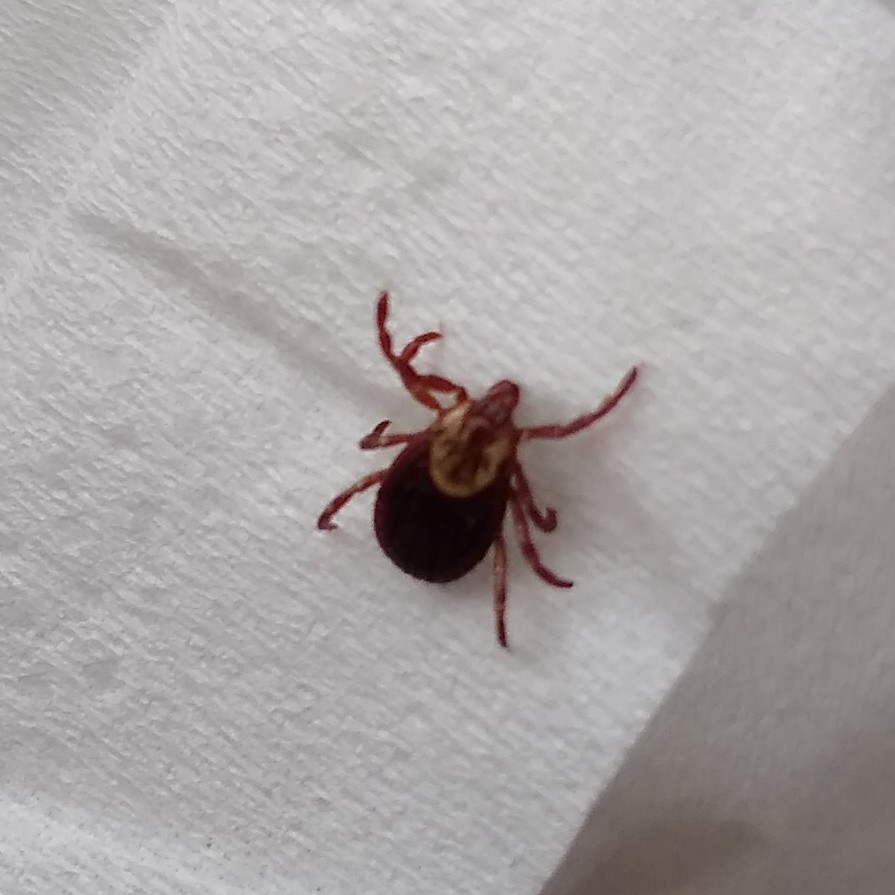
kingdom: Animalia
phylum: Arthropoda
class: Arachnida
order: Ixodida
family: Ixodidae
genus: Dermacentor
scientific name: Dermacentor variabilis
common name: American dog tick
